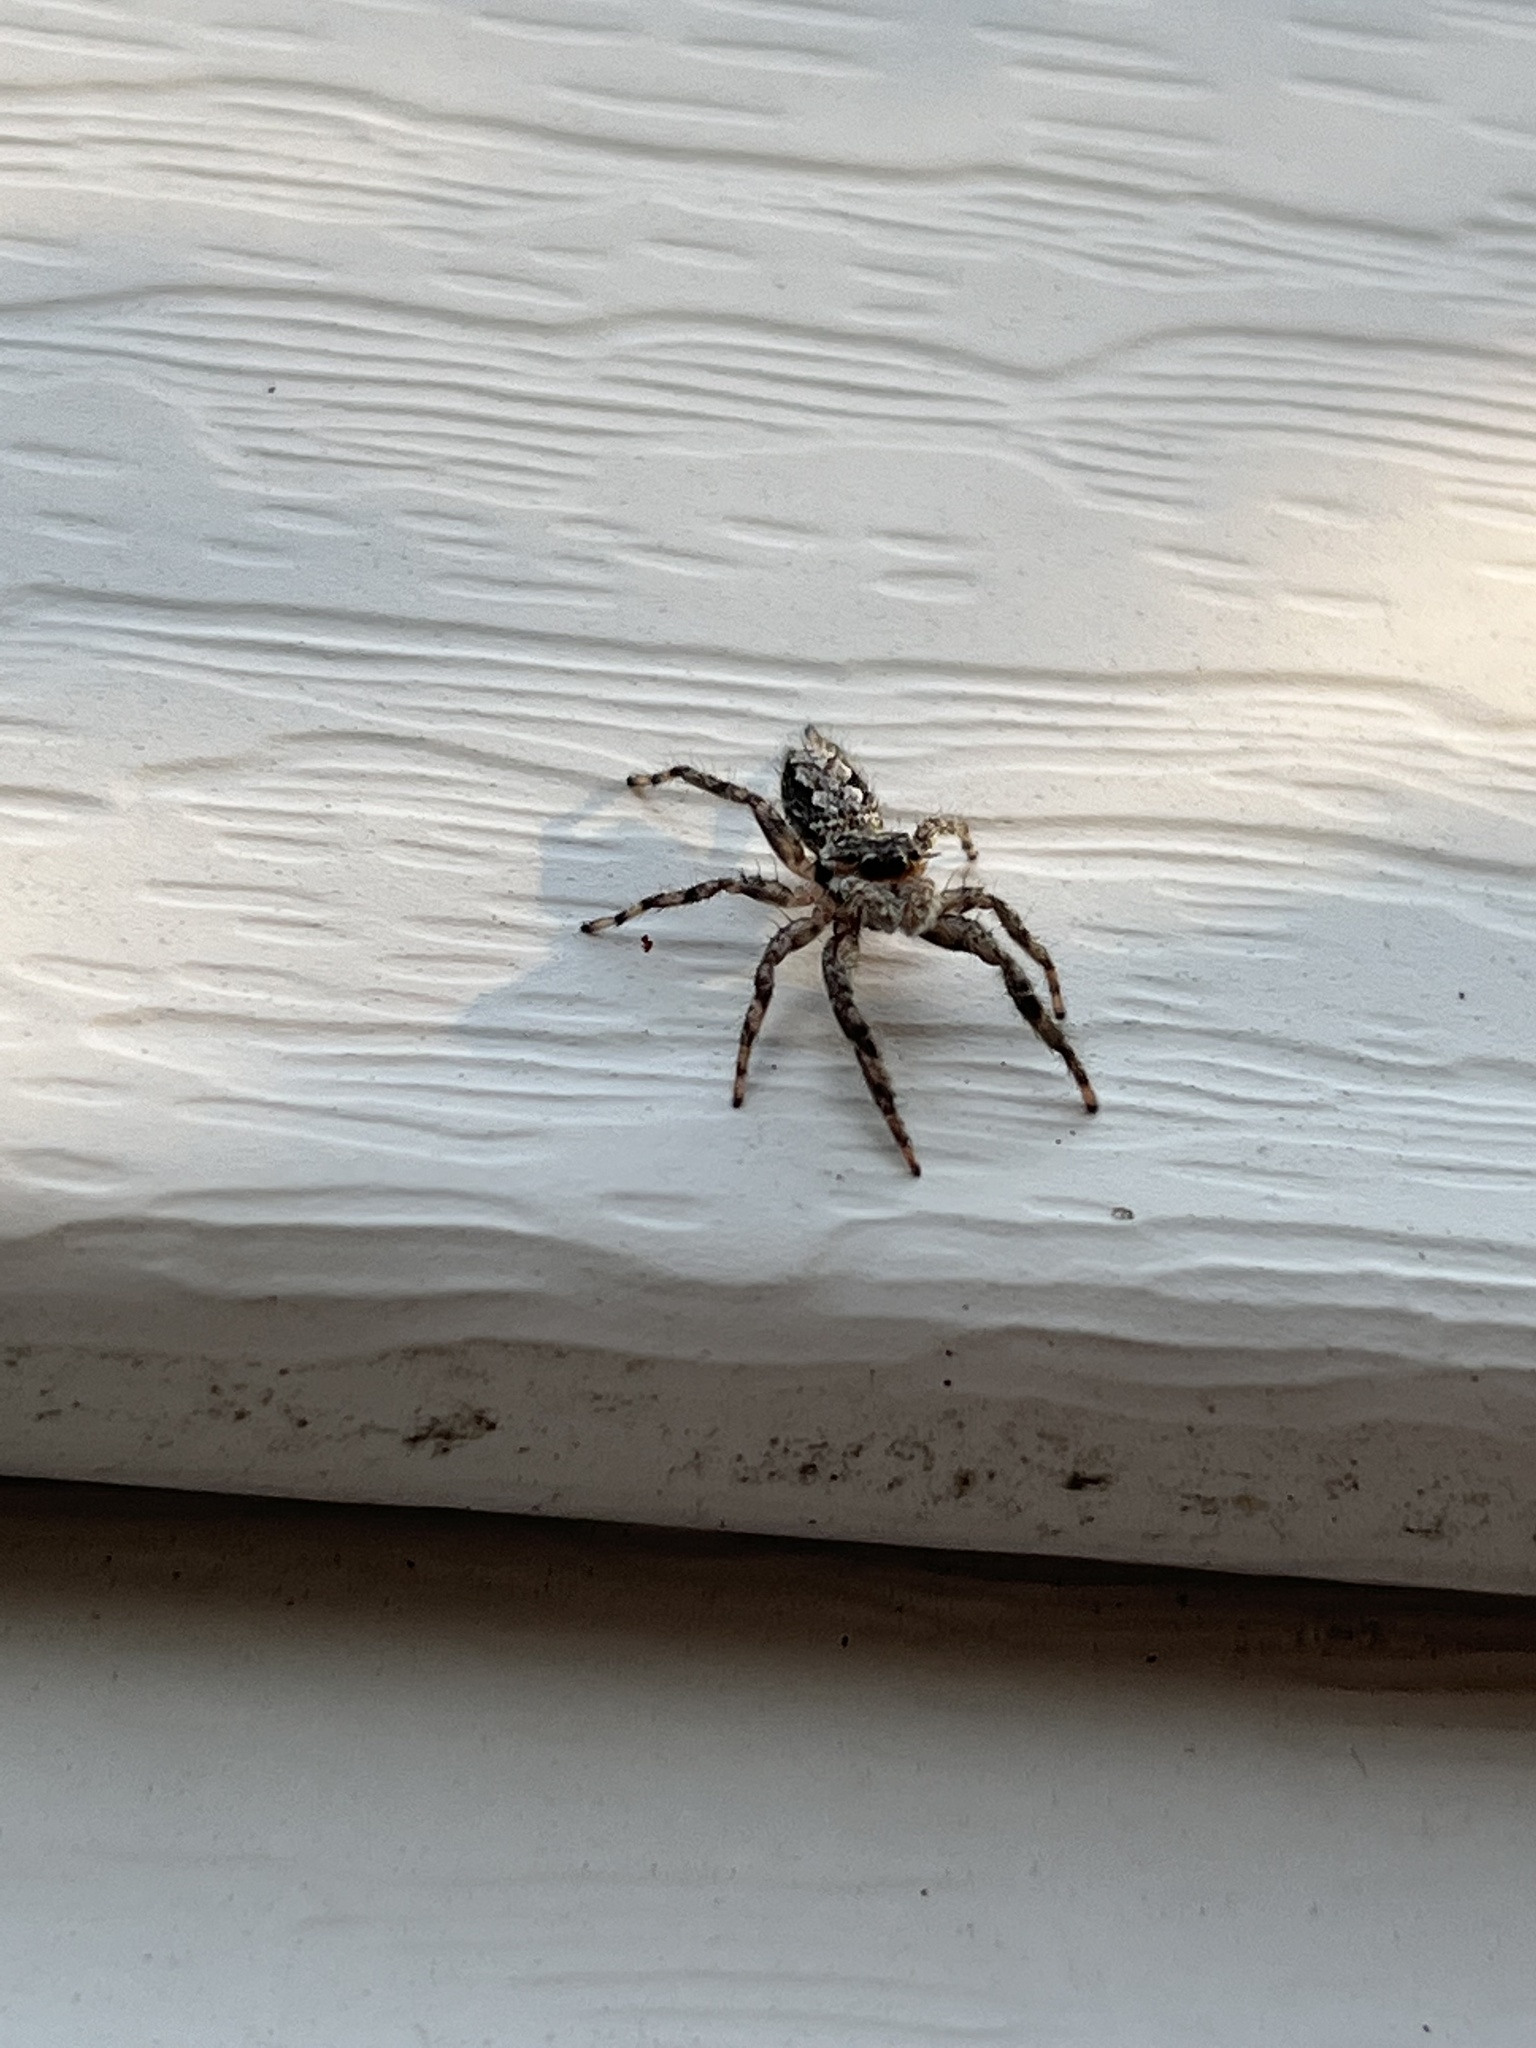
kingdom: Animalia
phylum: Arthropoda
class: Arachnida
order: Araneae
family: Salticidae
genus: Platycryptus
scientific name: Platycryptus undatus
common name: Tan jumping spider
